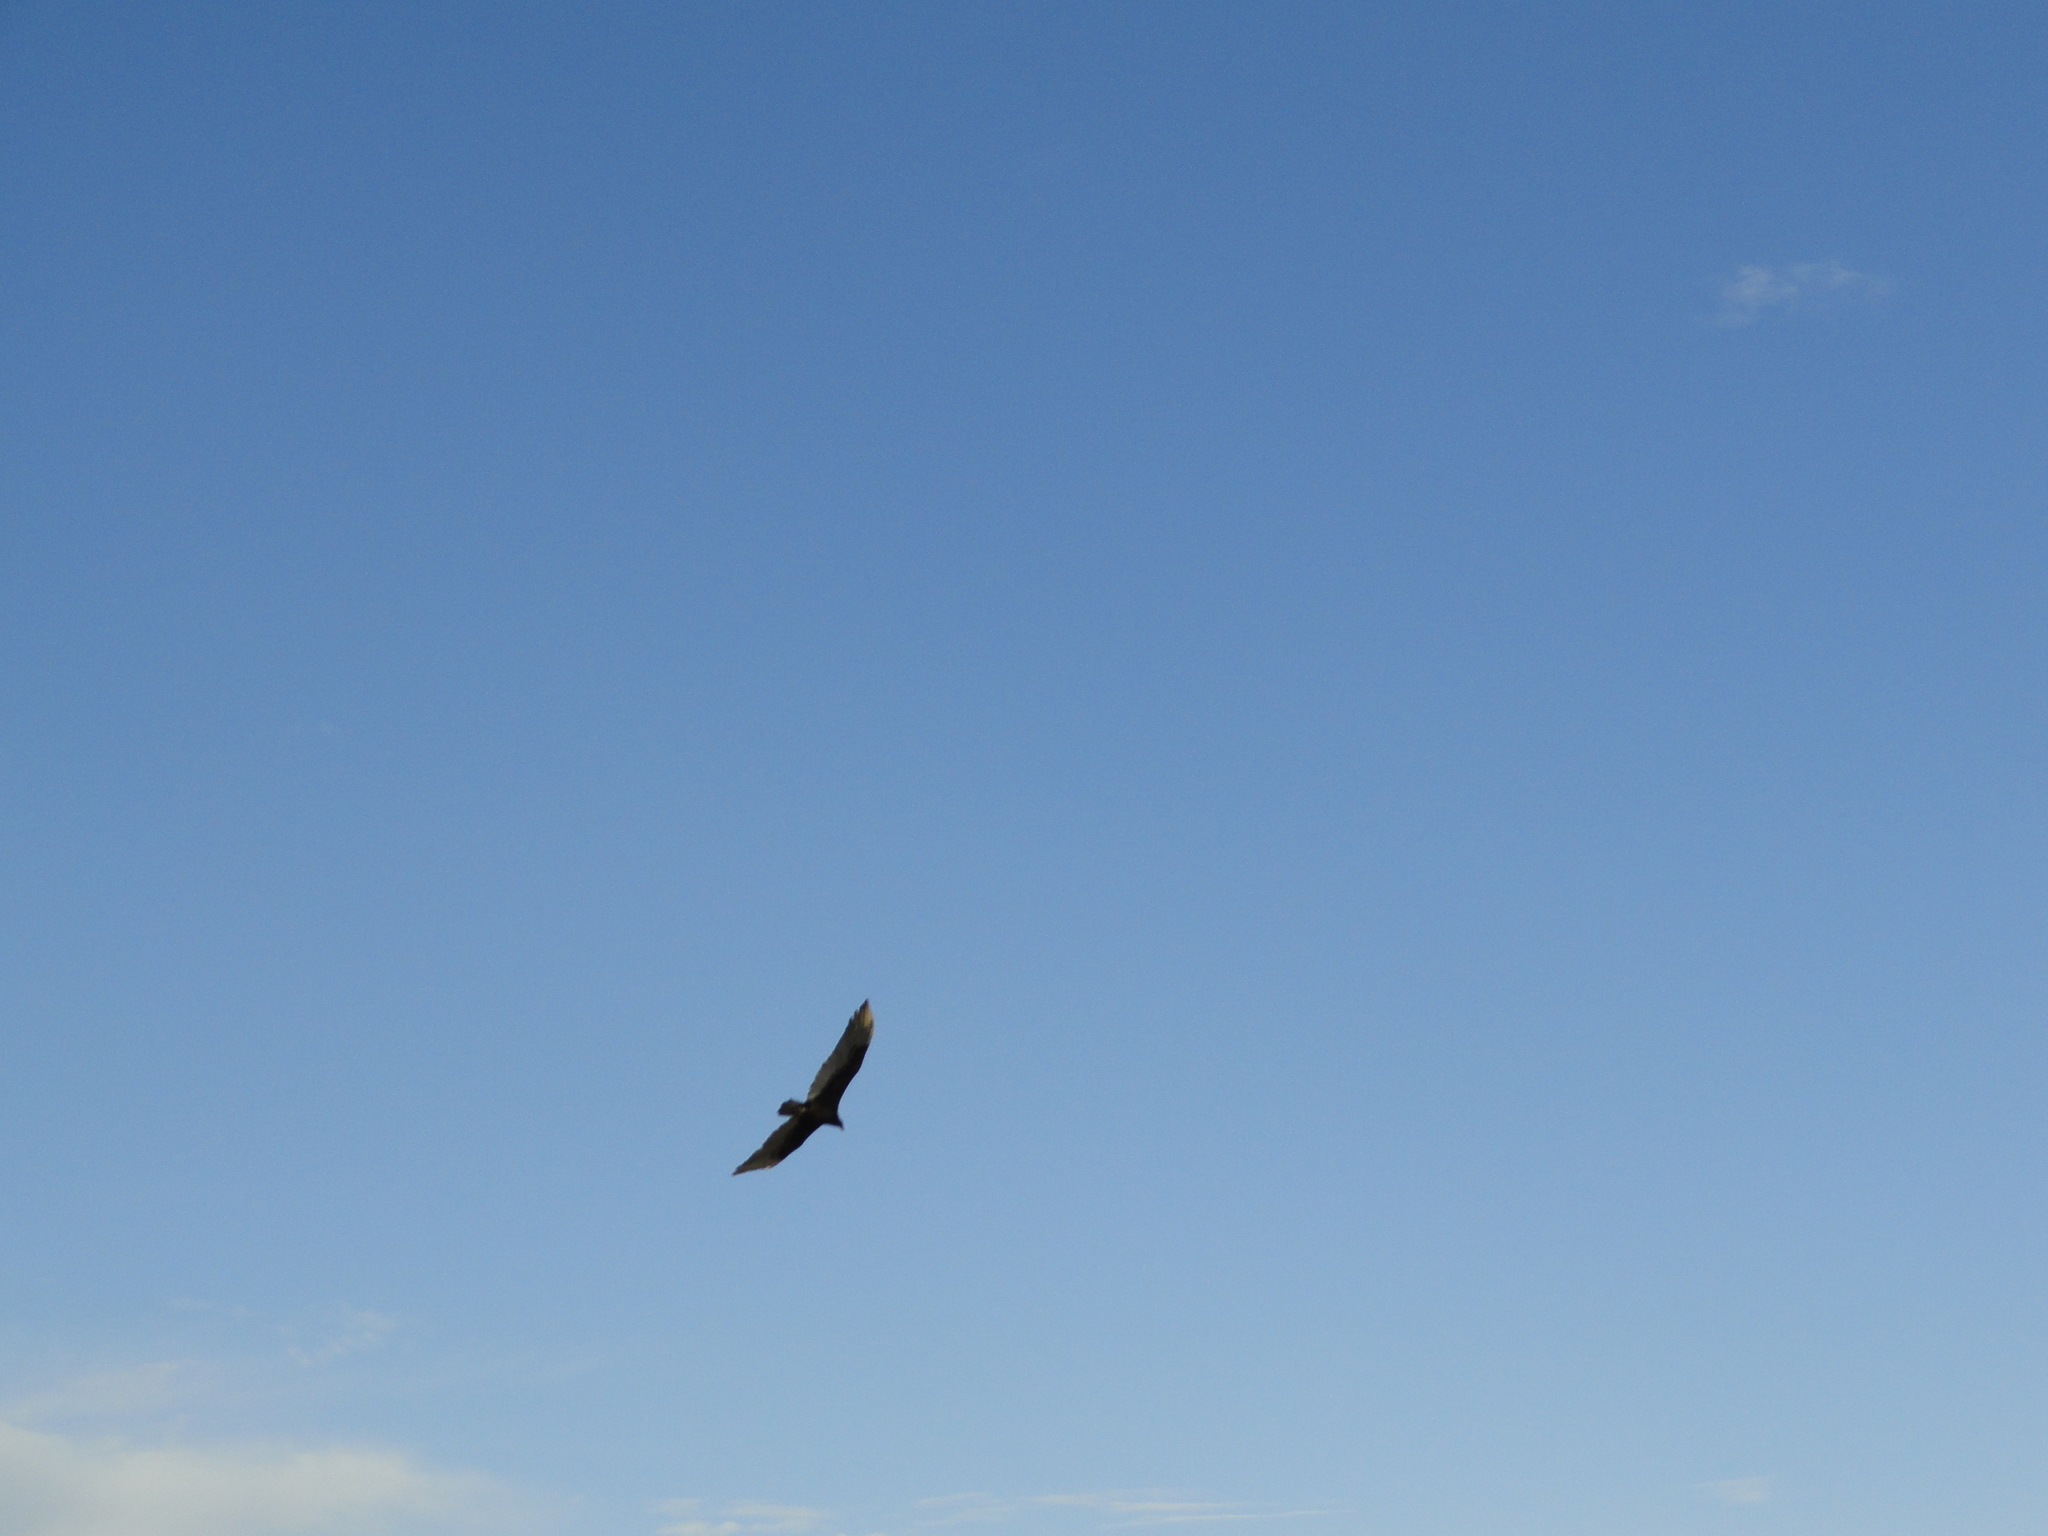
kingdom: Animalia
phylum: Chordata
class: Aves
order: Accipitriformes
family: Cathartidae
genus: Cathartes
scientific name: Cathartes aura
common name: Turkey vulture
